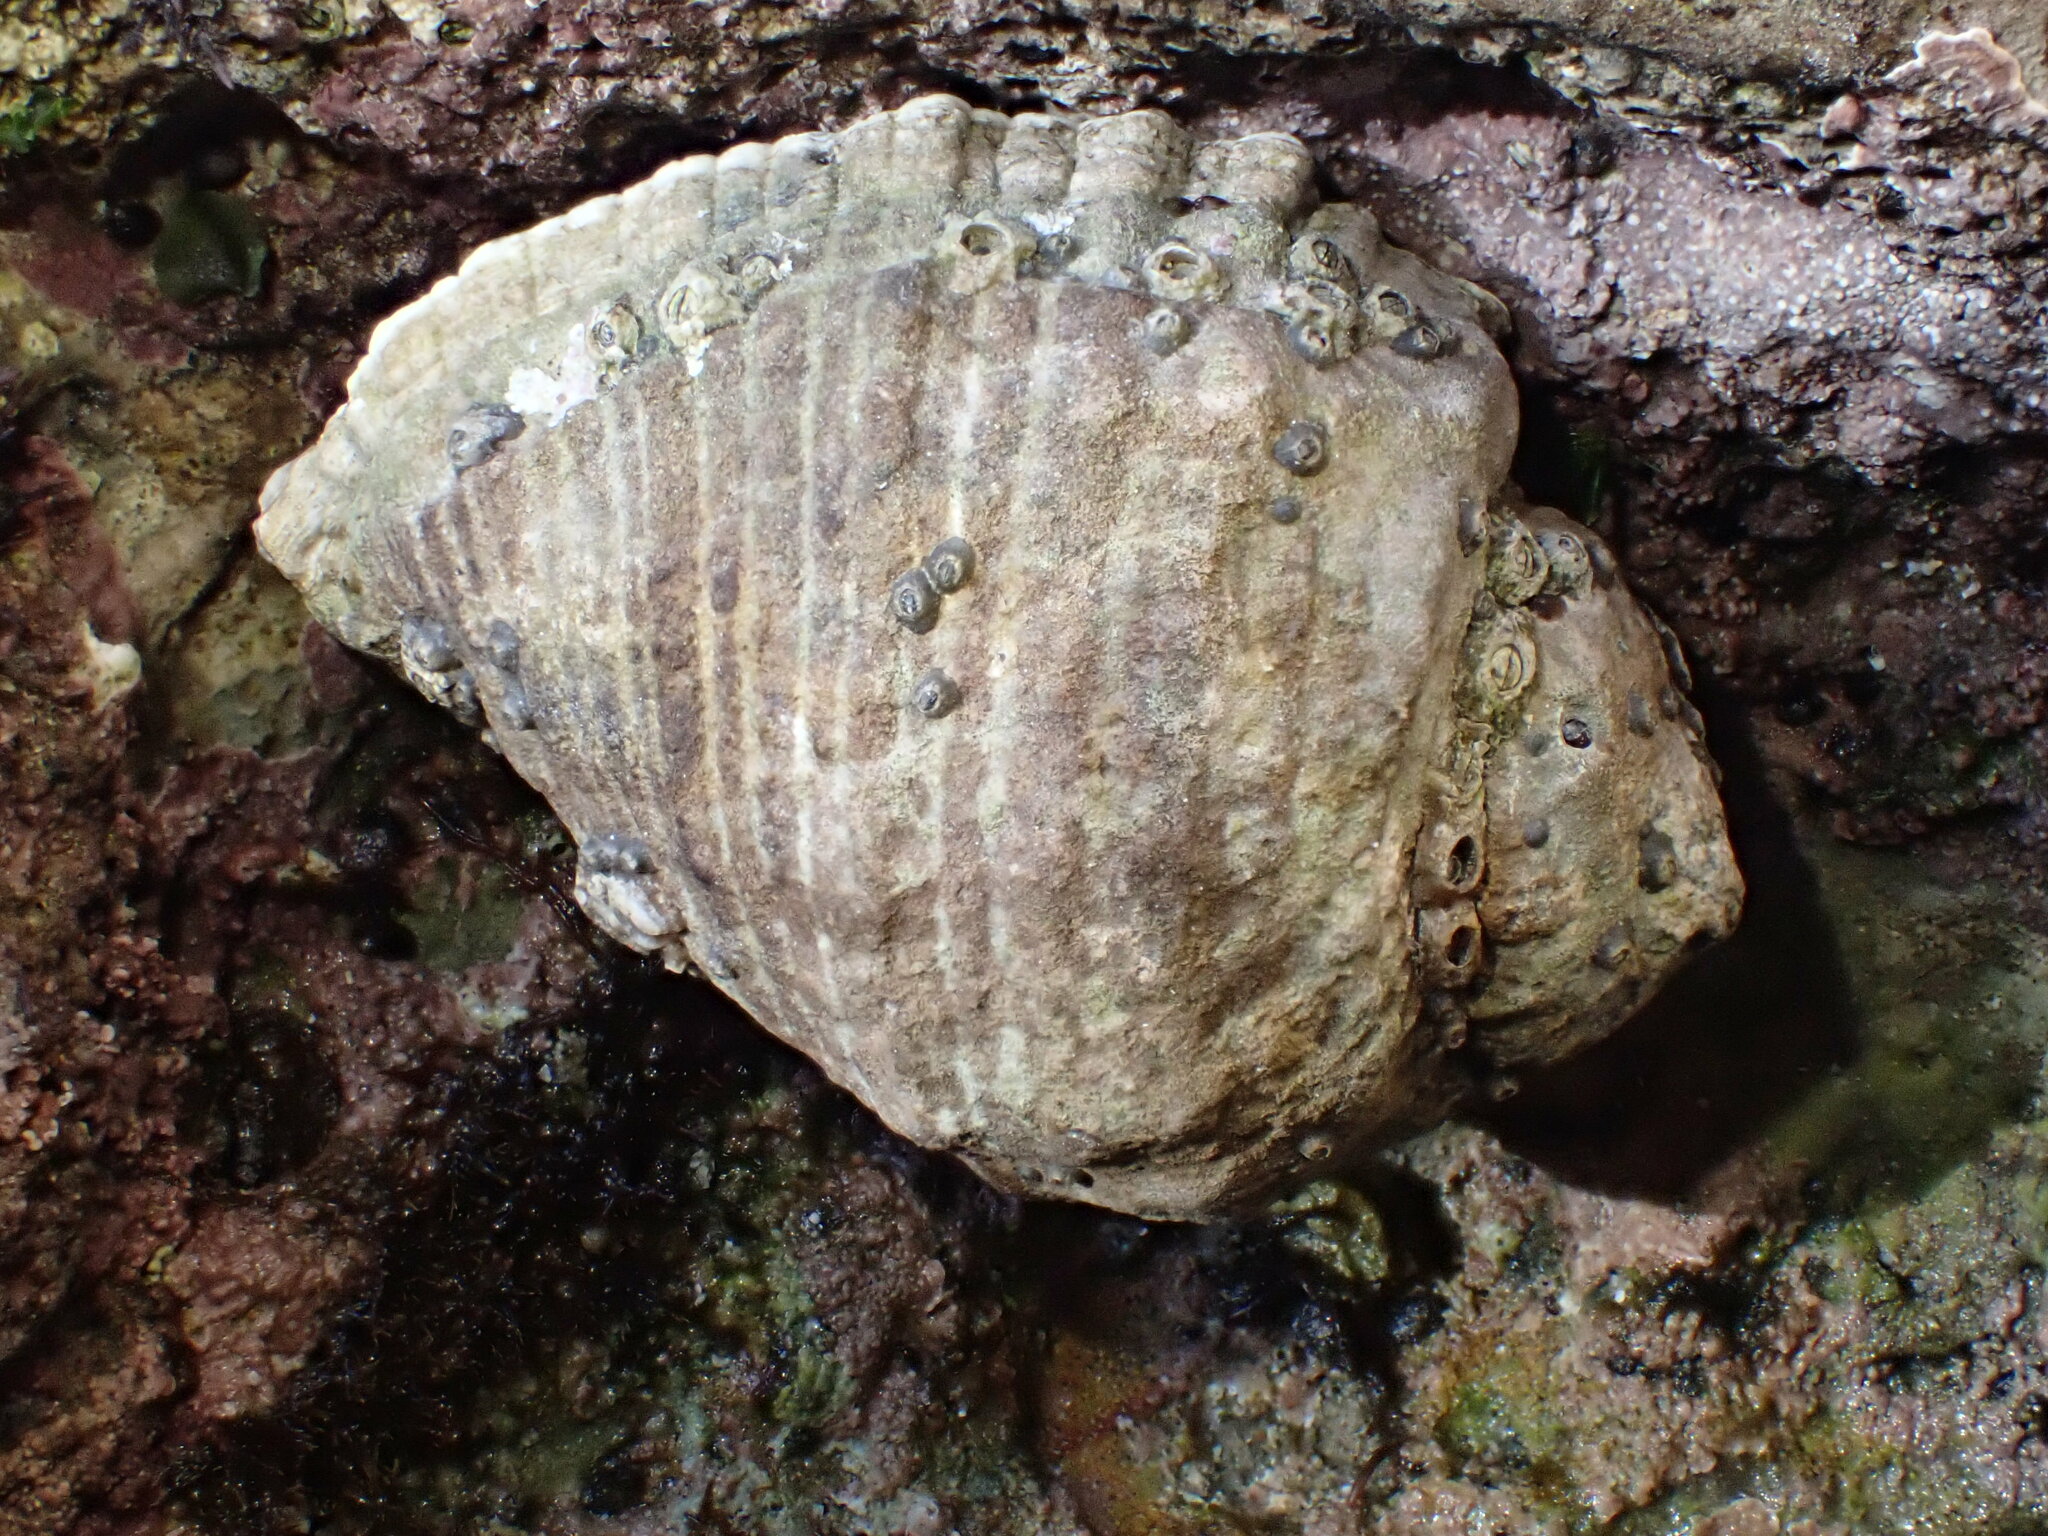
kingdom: Animalia
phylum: Mollusca
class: Gastropoda
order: Neogastropoda
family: Muricidae
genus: Haustrum
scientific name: Haustrum haustorium
